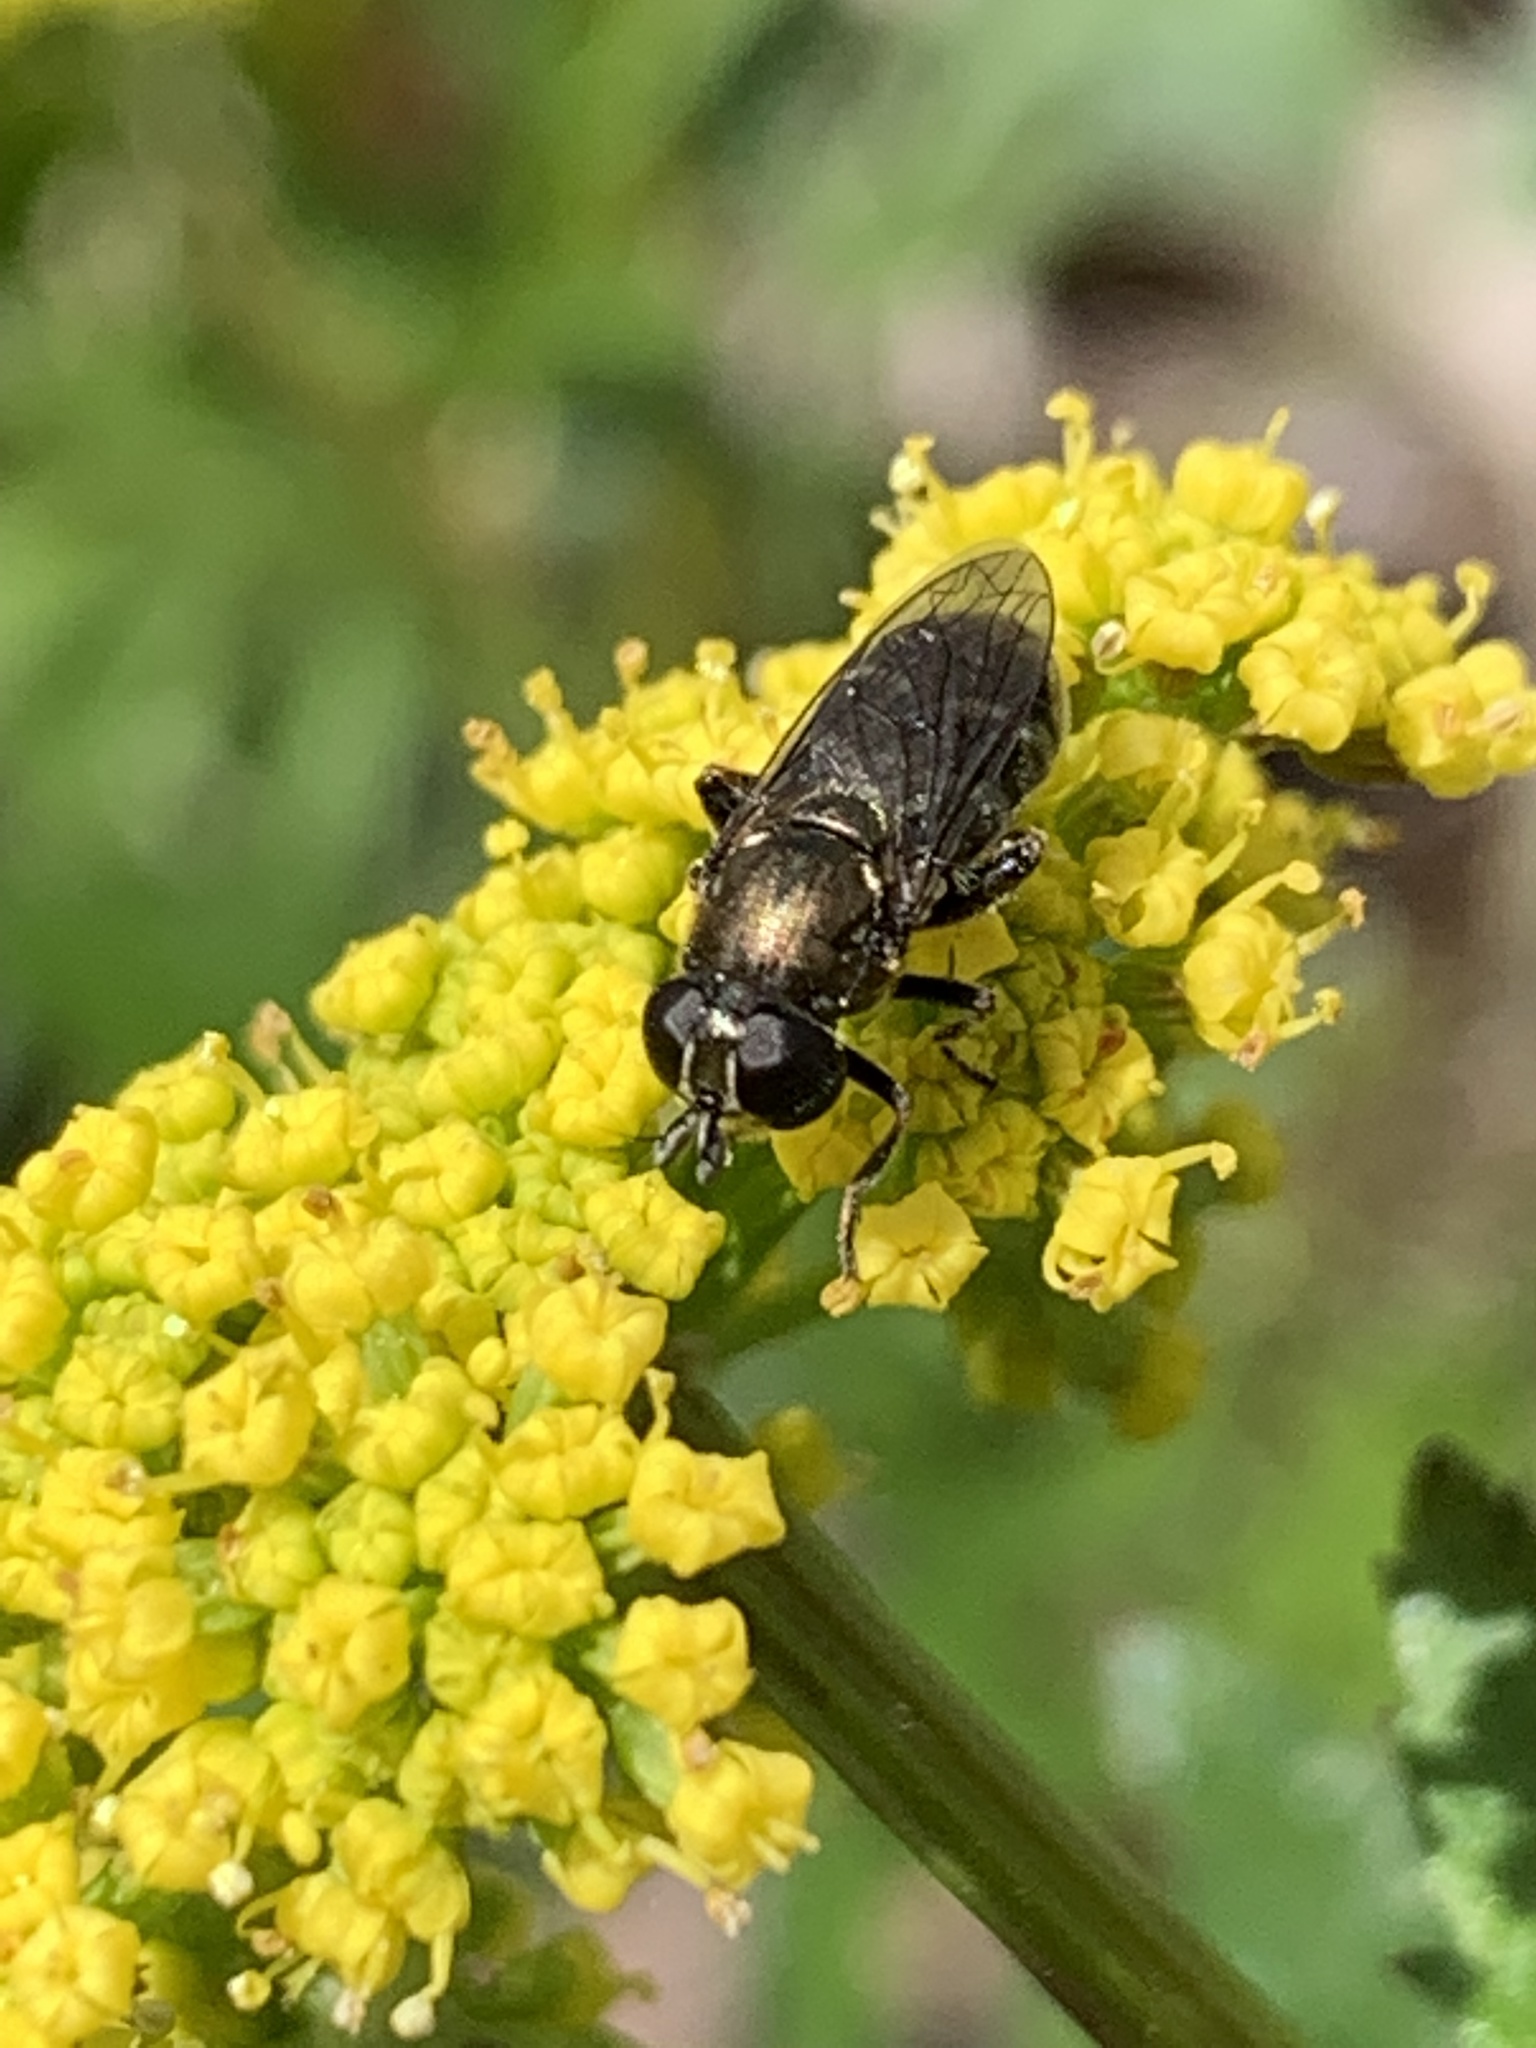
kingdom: Animalia
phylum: Arthropoda
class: Insecta
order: Diptera
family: Syrphidae
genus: Eumerus
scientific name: Eumerus
